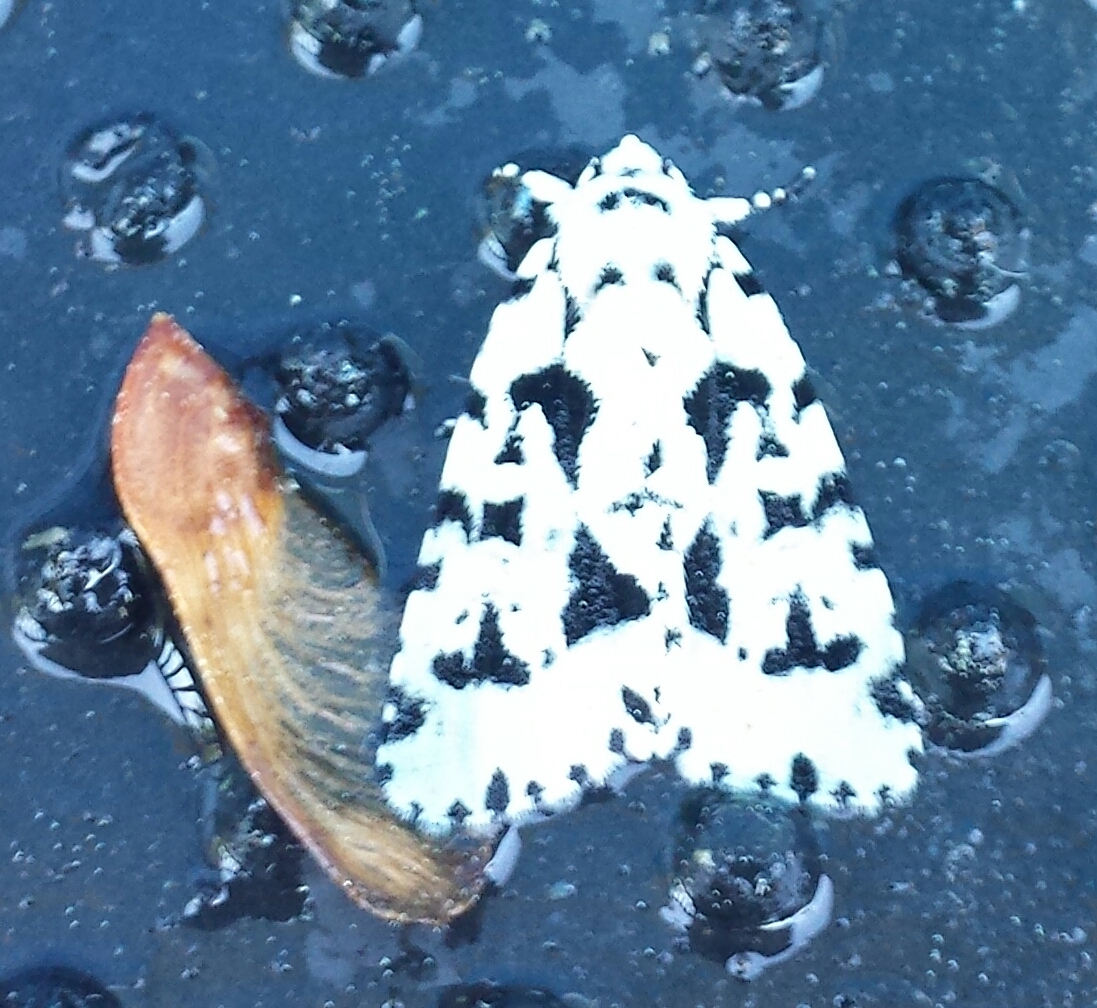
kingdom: Animalia
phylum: Arthropoda
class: Insecta
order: Lepidoptera
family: Noctuidae
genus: Acronicta
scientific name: Acronicta fallax
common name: Green marvel
